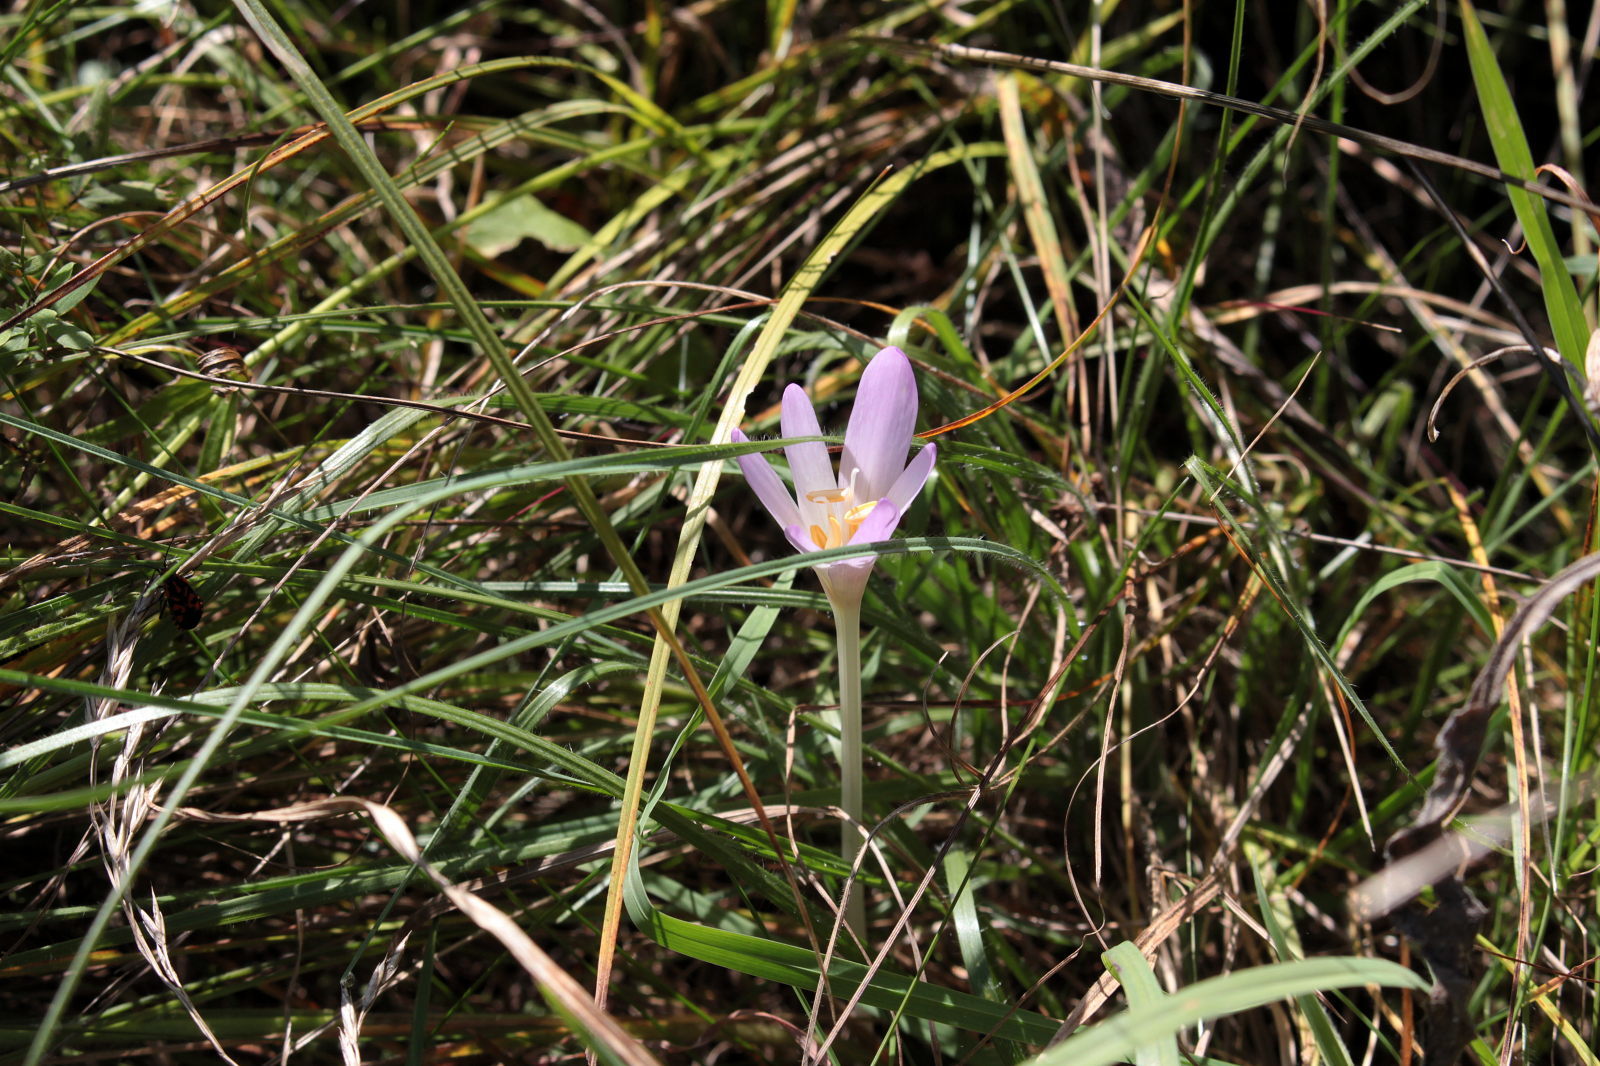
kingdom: Plantae
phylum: Tracheophyta
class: Liliopsida
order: Liliales
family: Colchicaceae
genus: Colchicum
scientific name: Colchicum autumnale
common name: Autumn crocus
